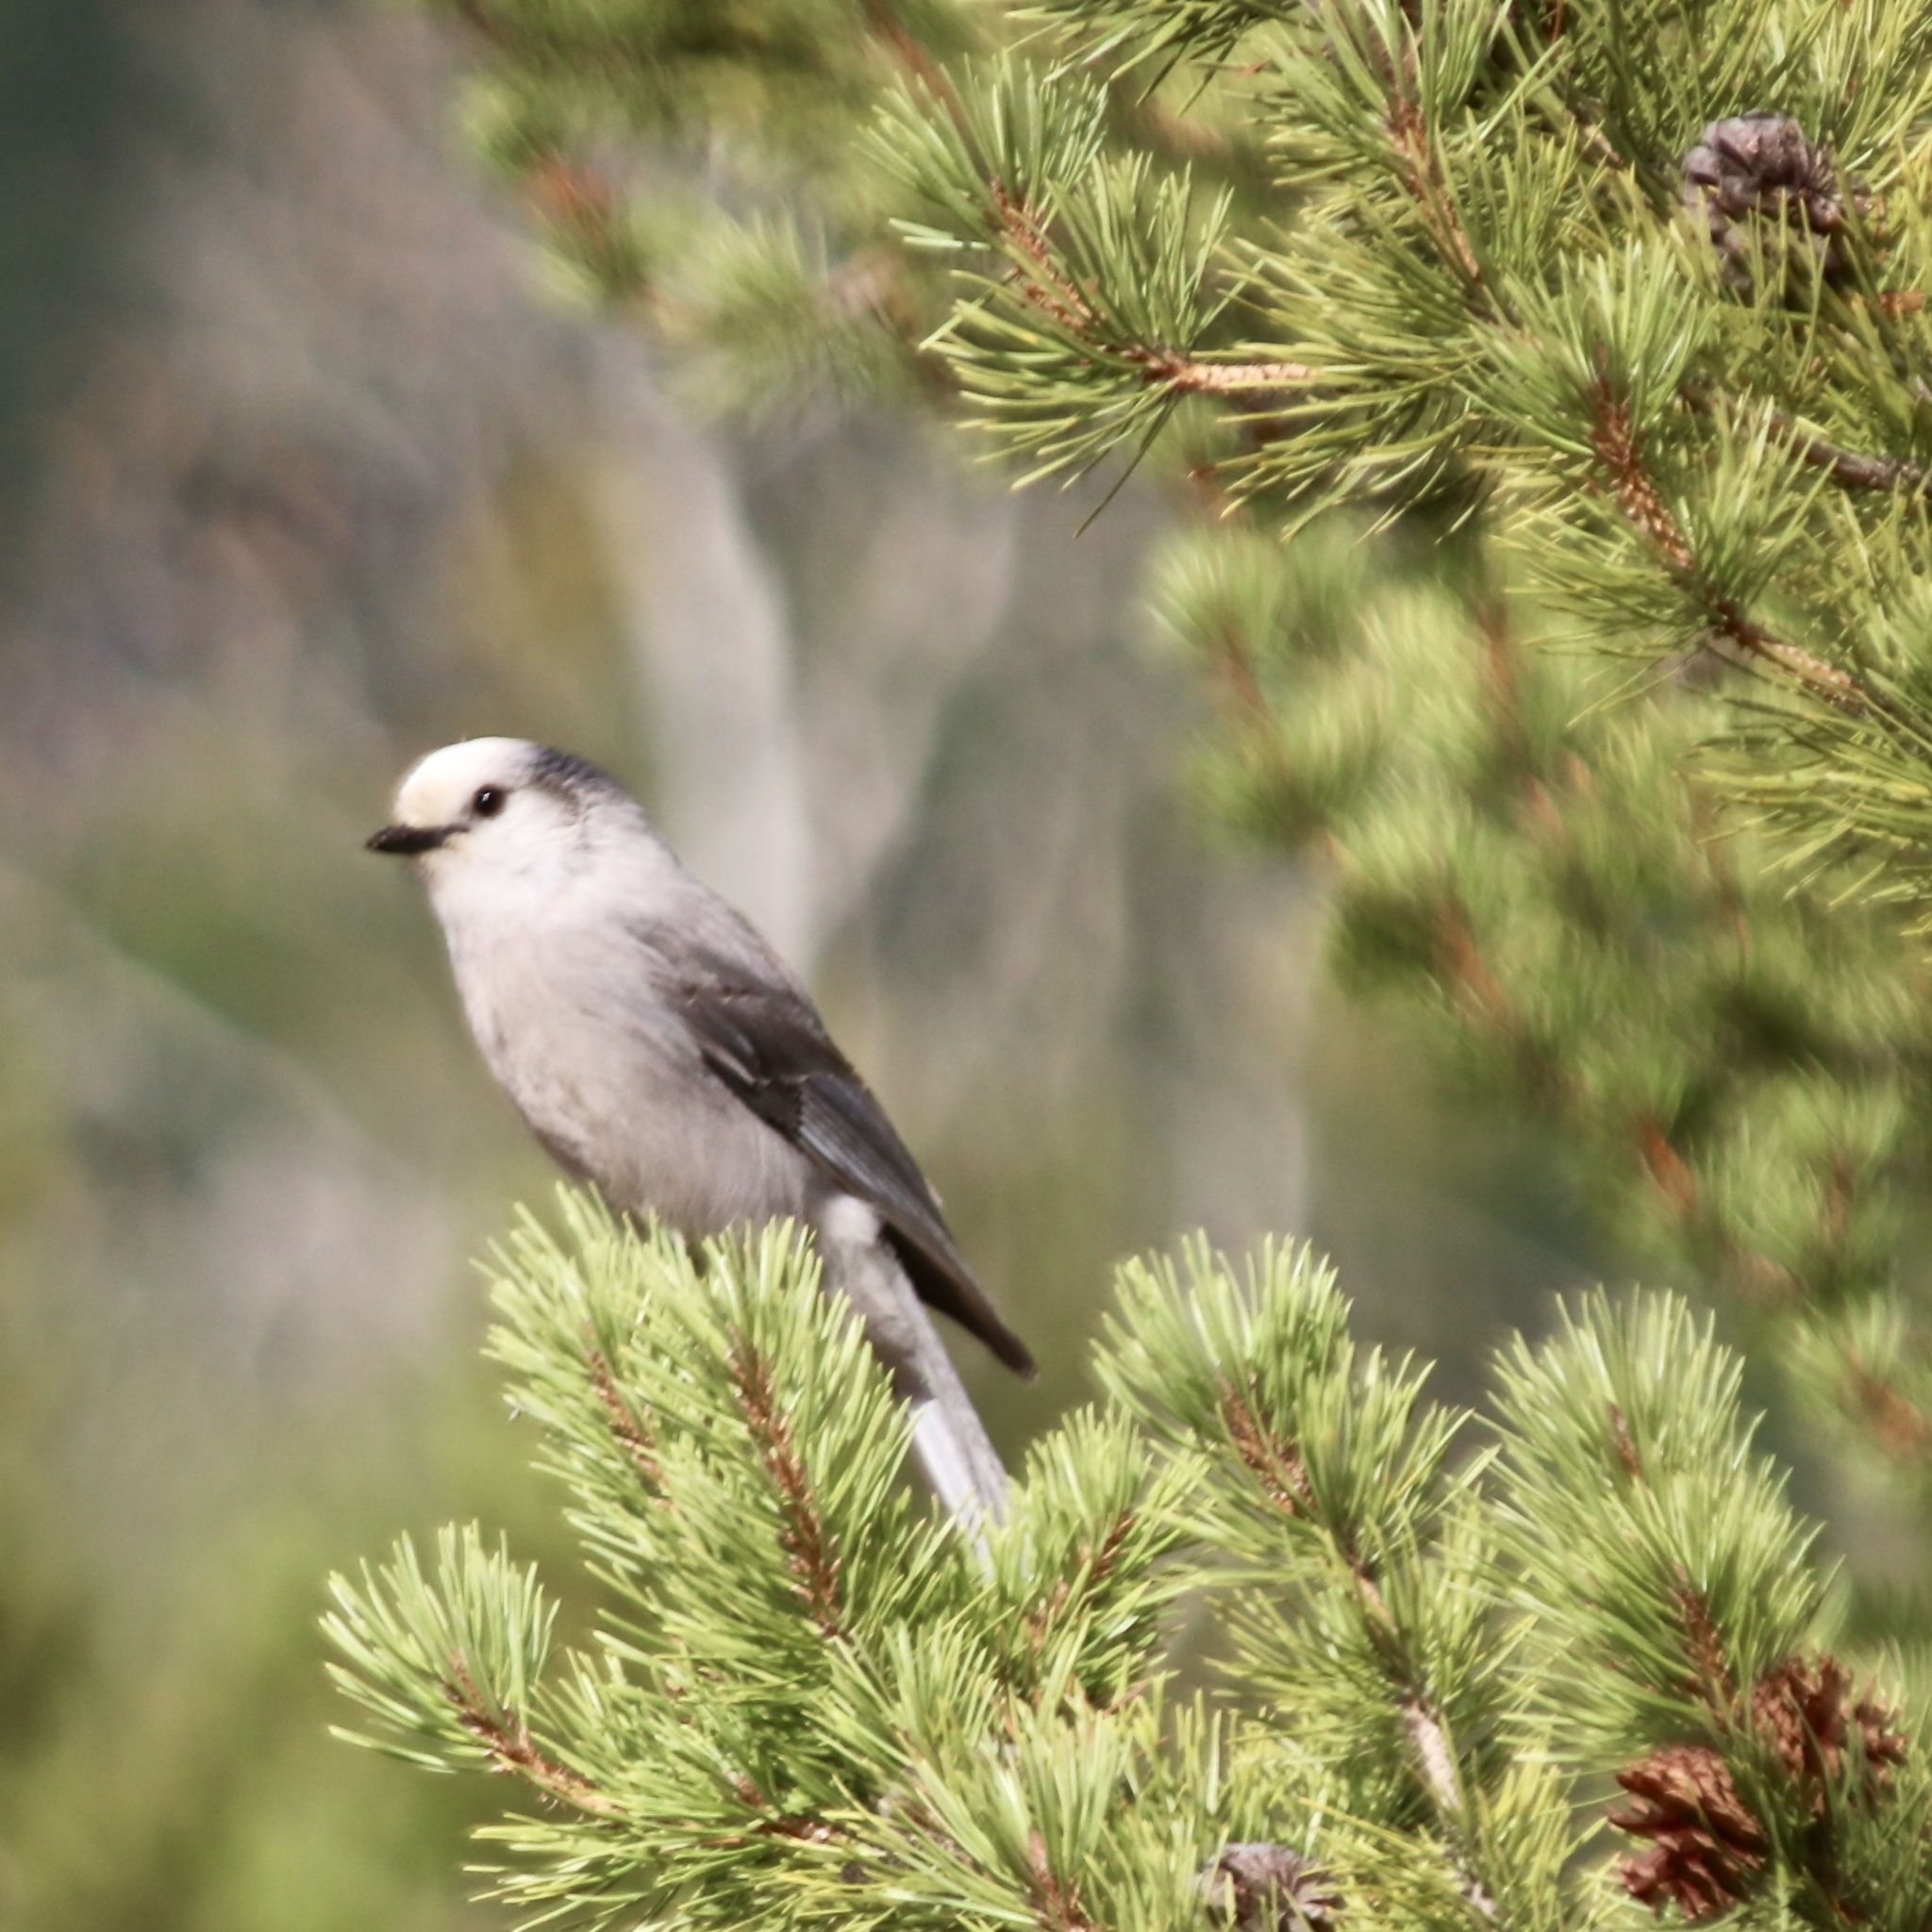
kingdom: Animalia
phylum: Chordata
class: Aves
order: Passeriformes
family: Corvidae
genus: Perisoreus
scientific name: Perisoreus canadensis
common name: Gray jay
